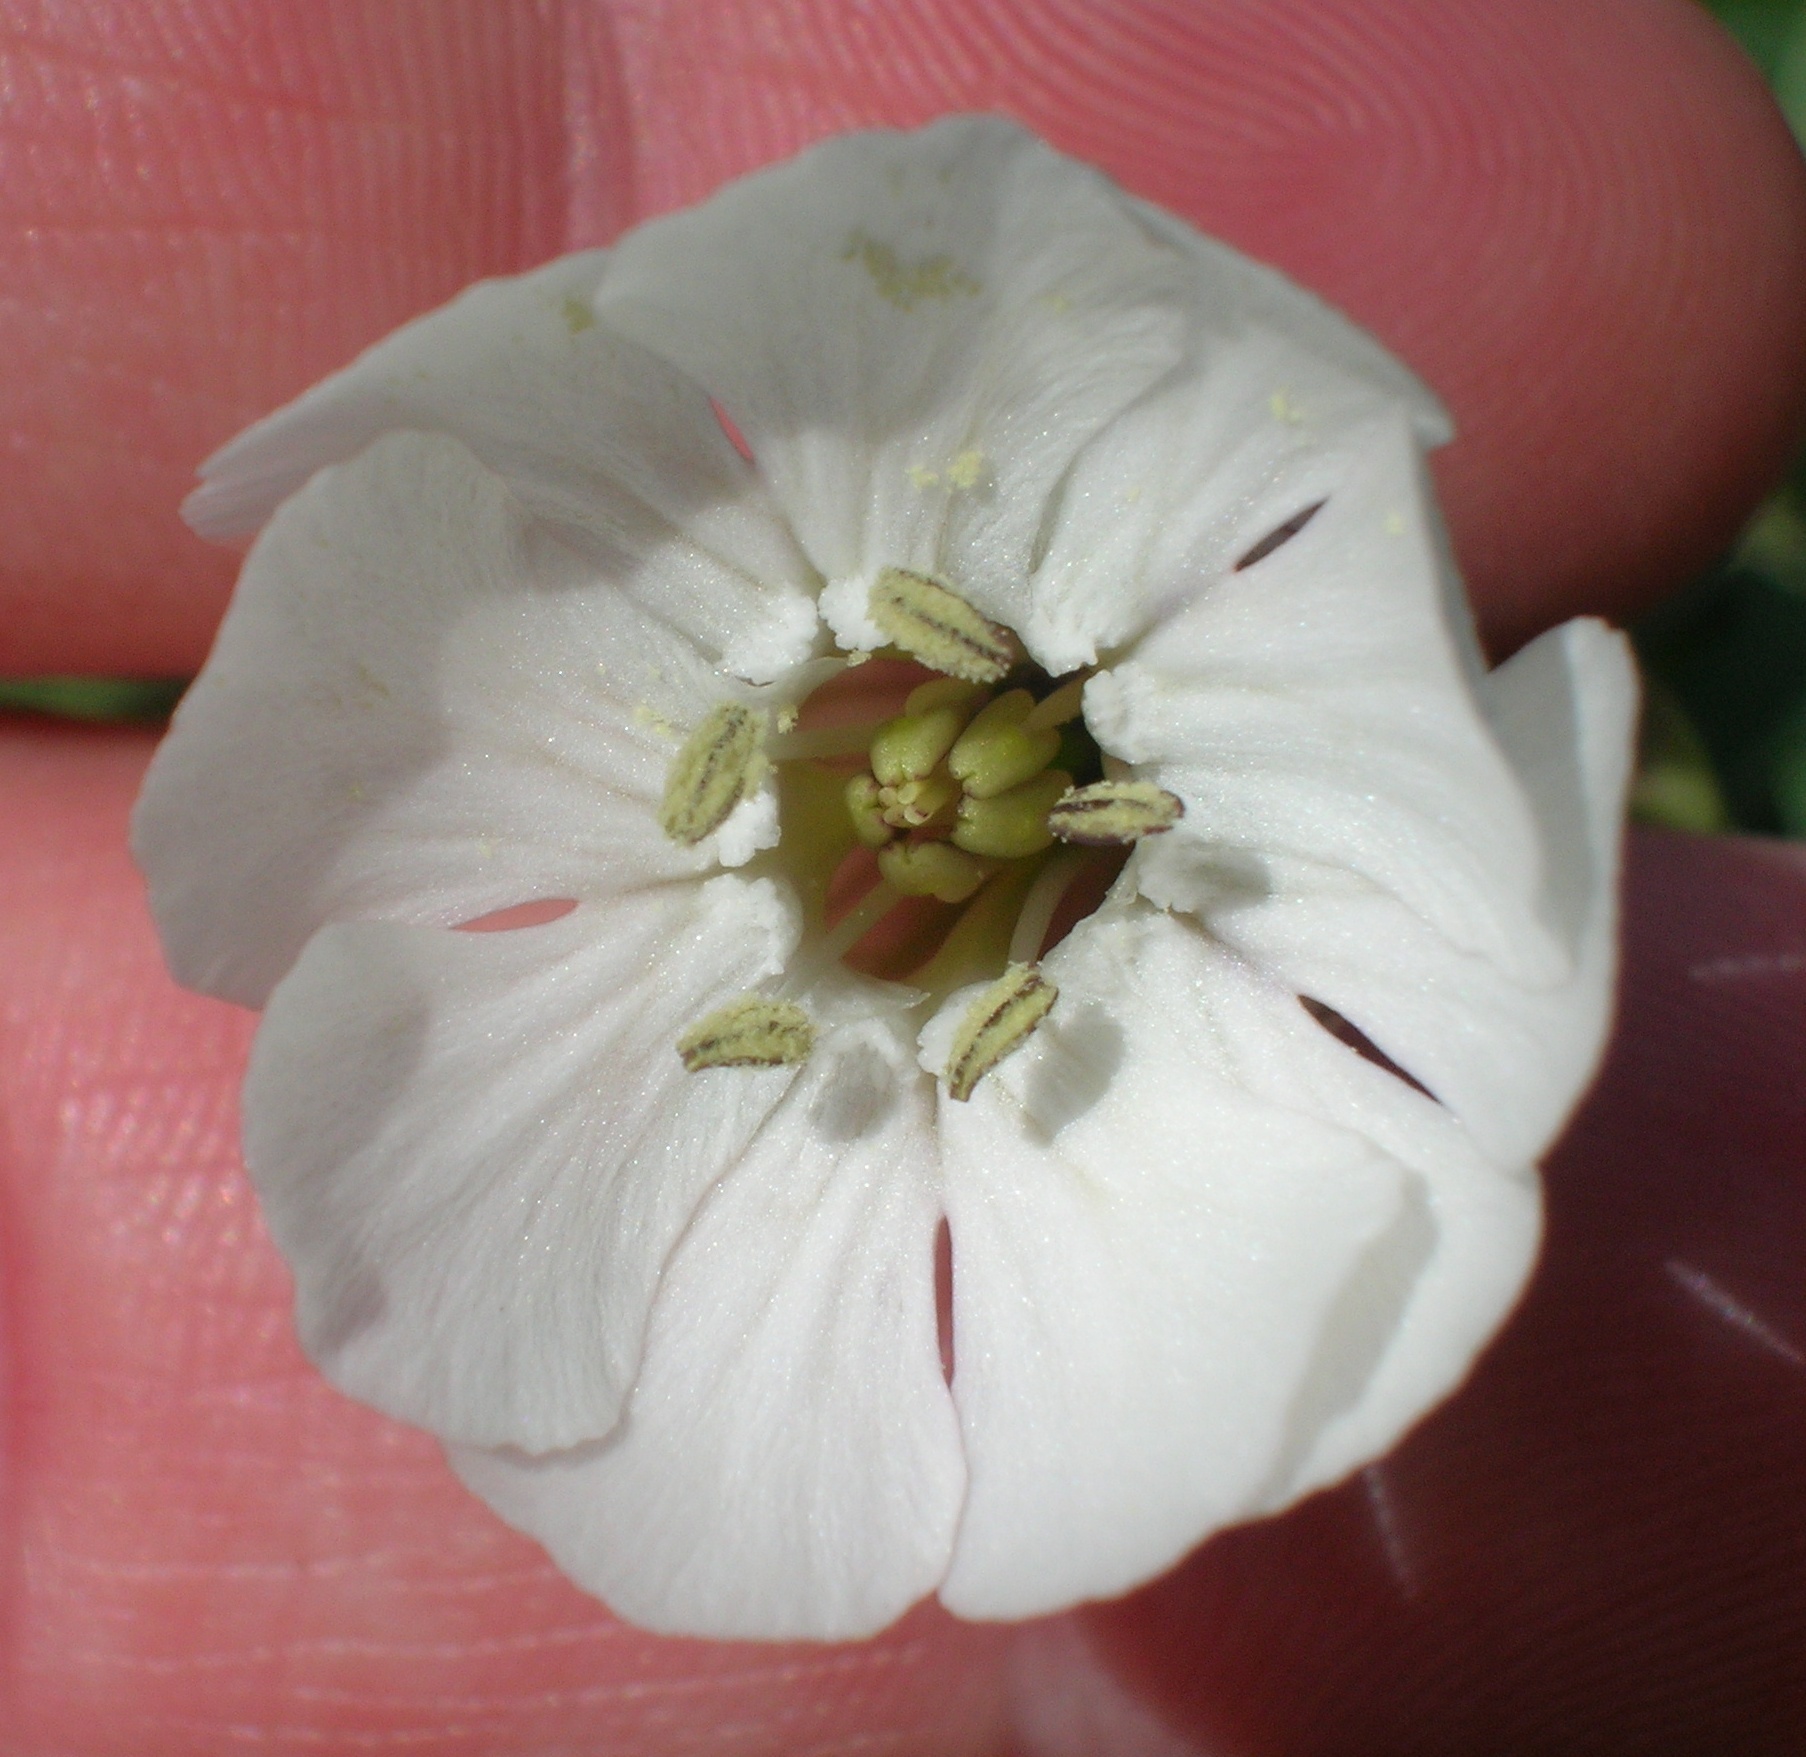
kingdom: Plantae
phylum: Tracheophyta
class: Magnoliopsida
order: Caryophyllales
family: Caryophyllaceae
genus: Silene
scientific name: Silene uniflora
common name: Sea campion
